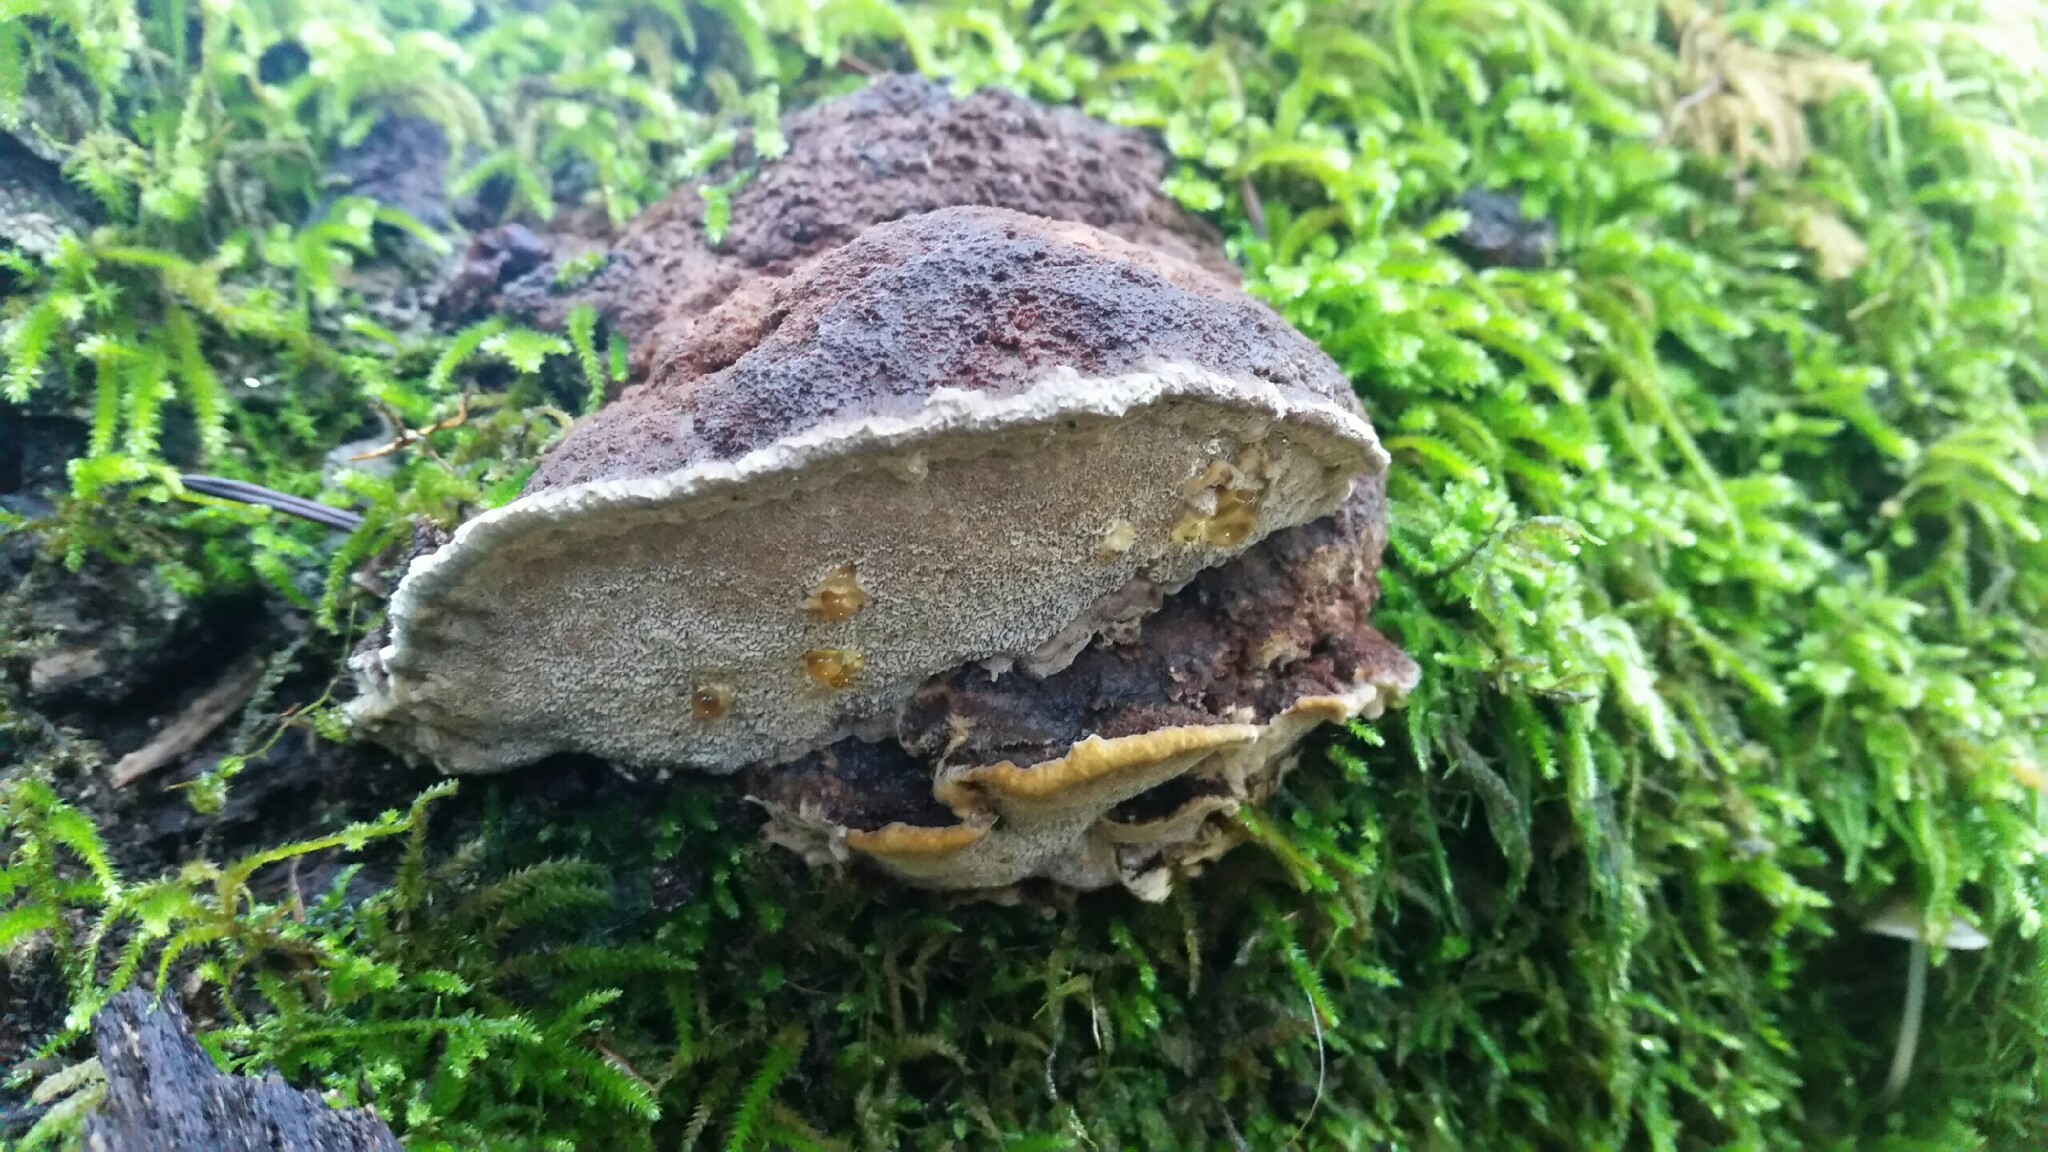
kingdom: Fungi
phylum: Basidiomycota
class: Agaricomycetes
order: Hymenochaetales
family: Hymenochaetaceae
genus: Phellinus
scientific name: Phellinus gilvus
